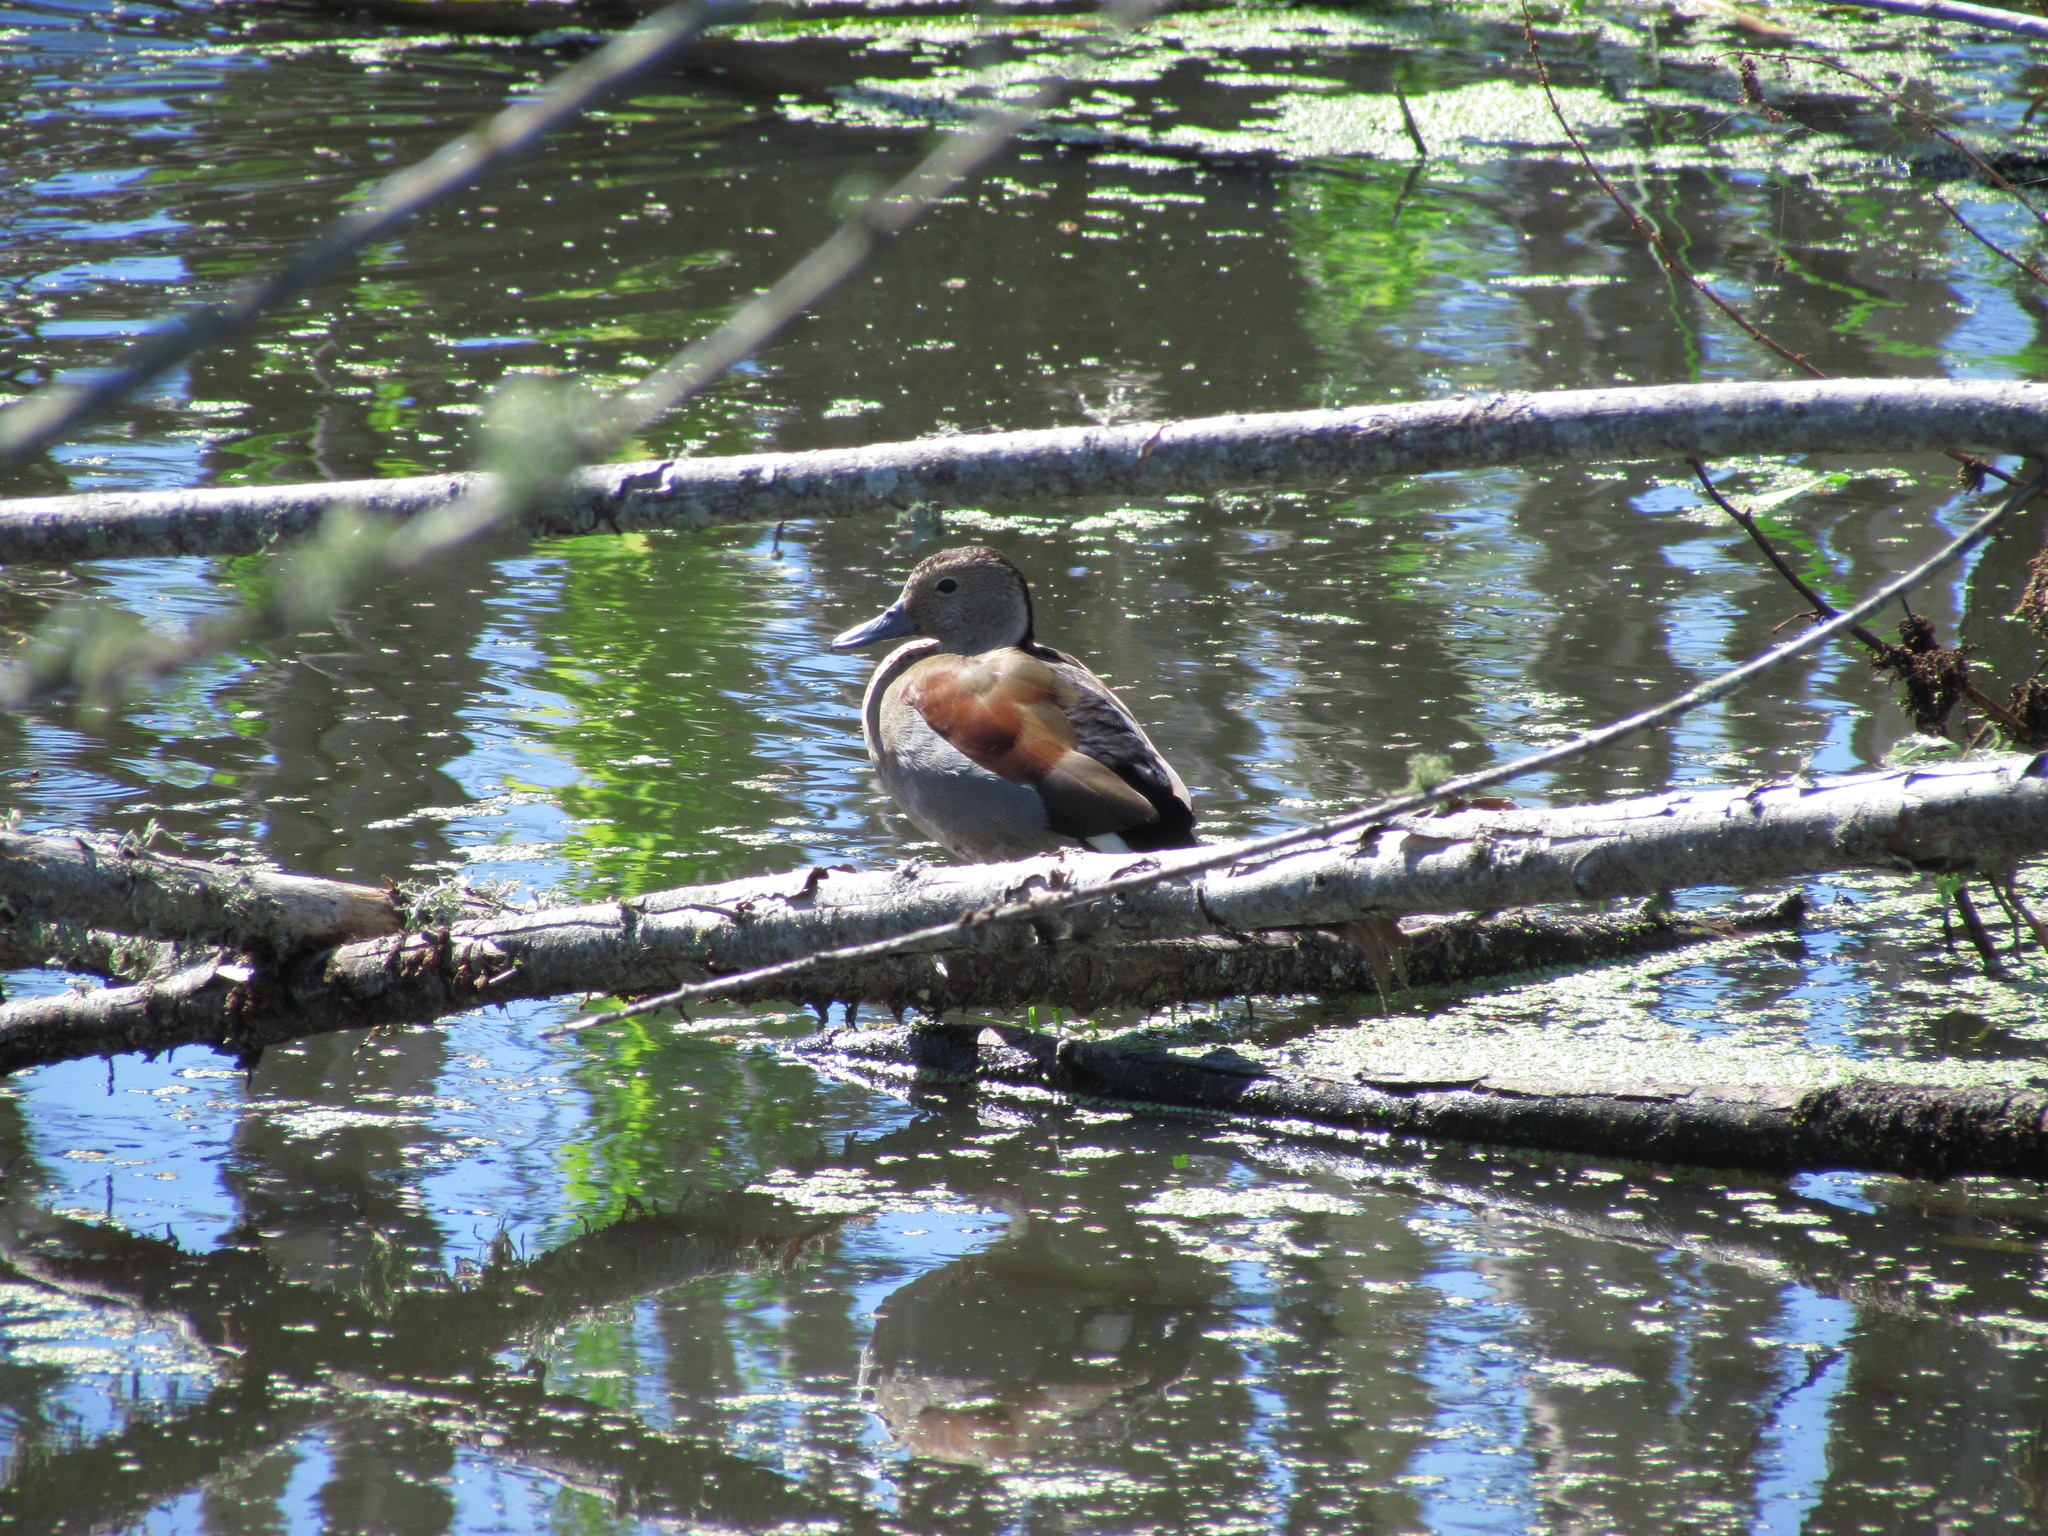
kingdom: Animalia
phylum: Chordata
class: Aves
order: Anseriformes
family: Anatidae
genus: Callonetta
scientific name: Callonetta leucophrys
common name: Ringed teal
